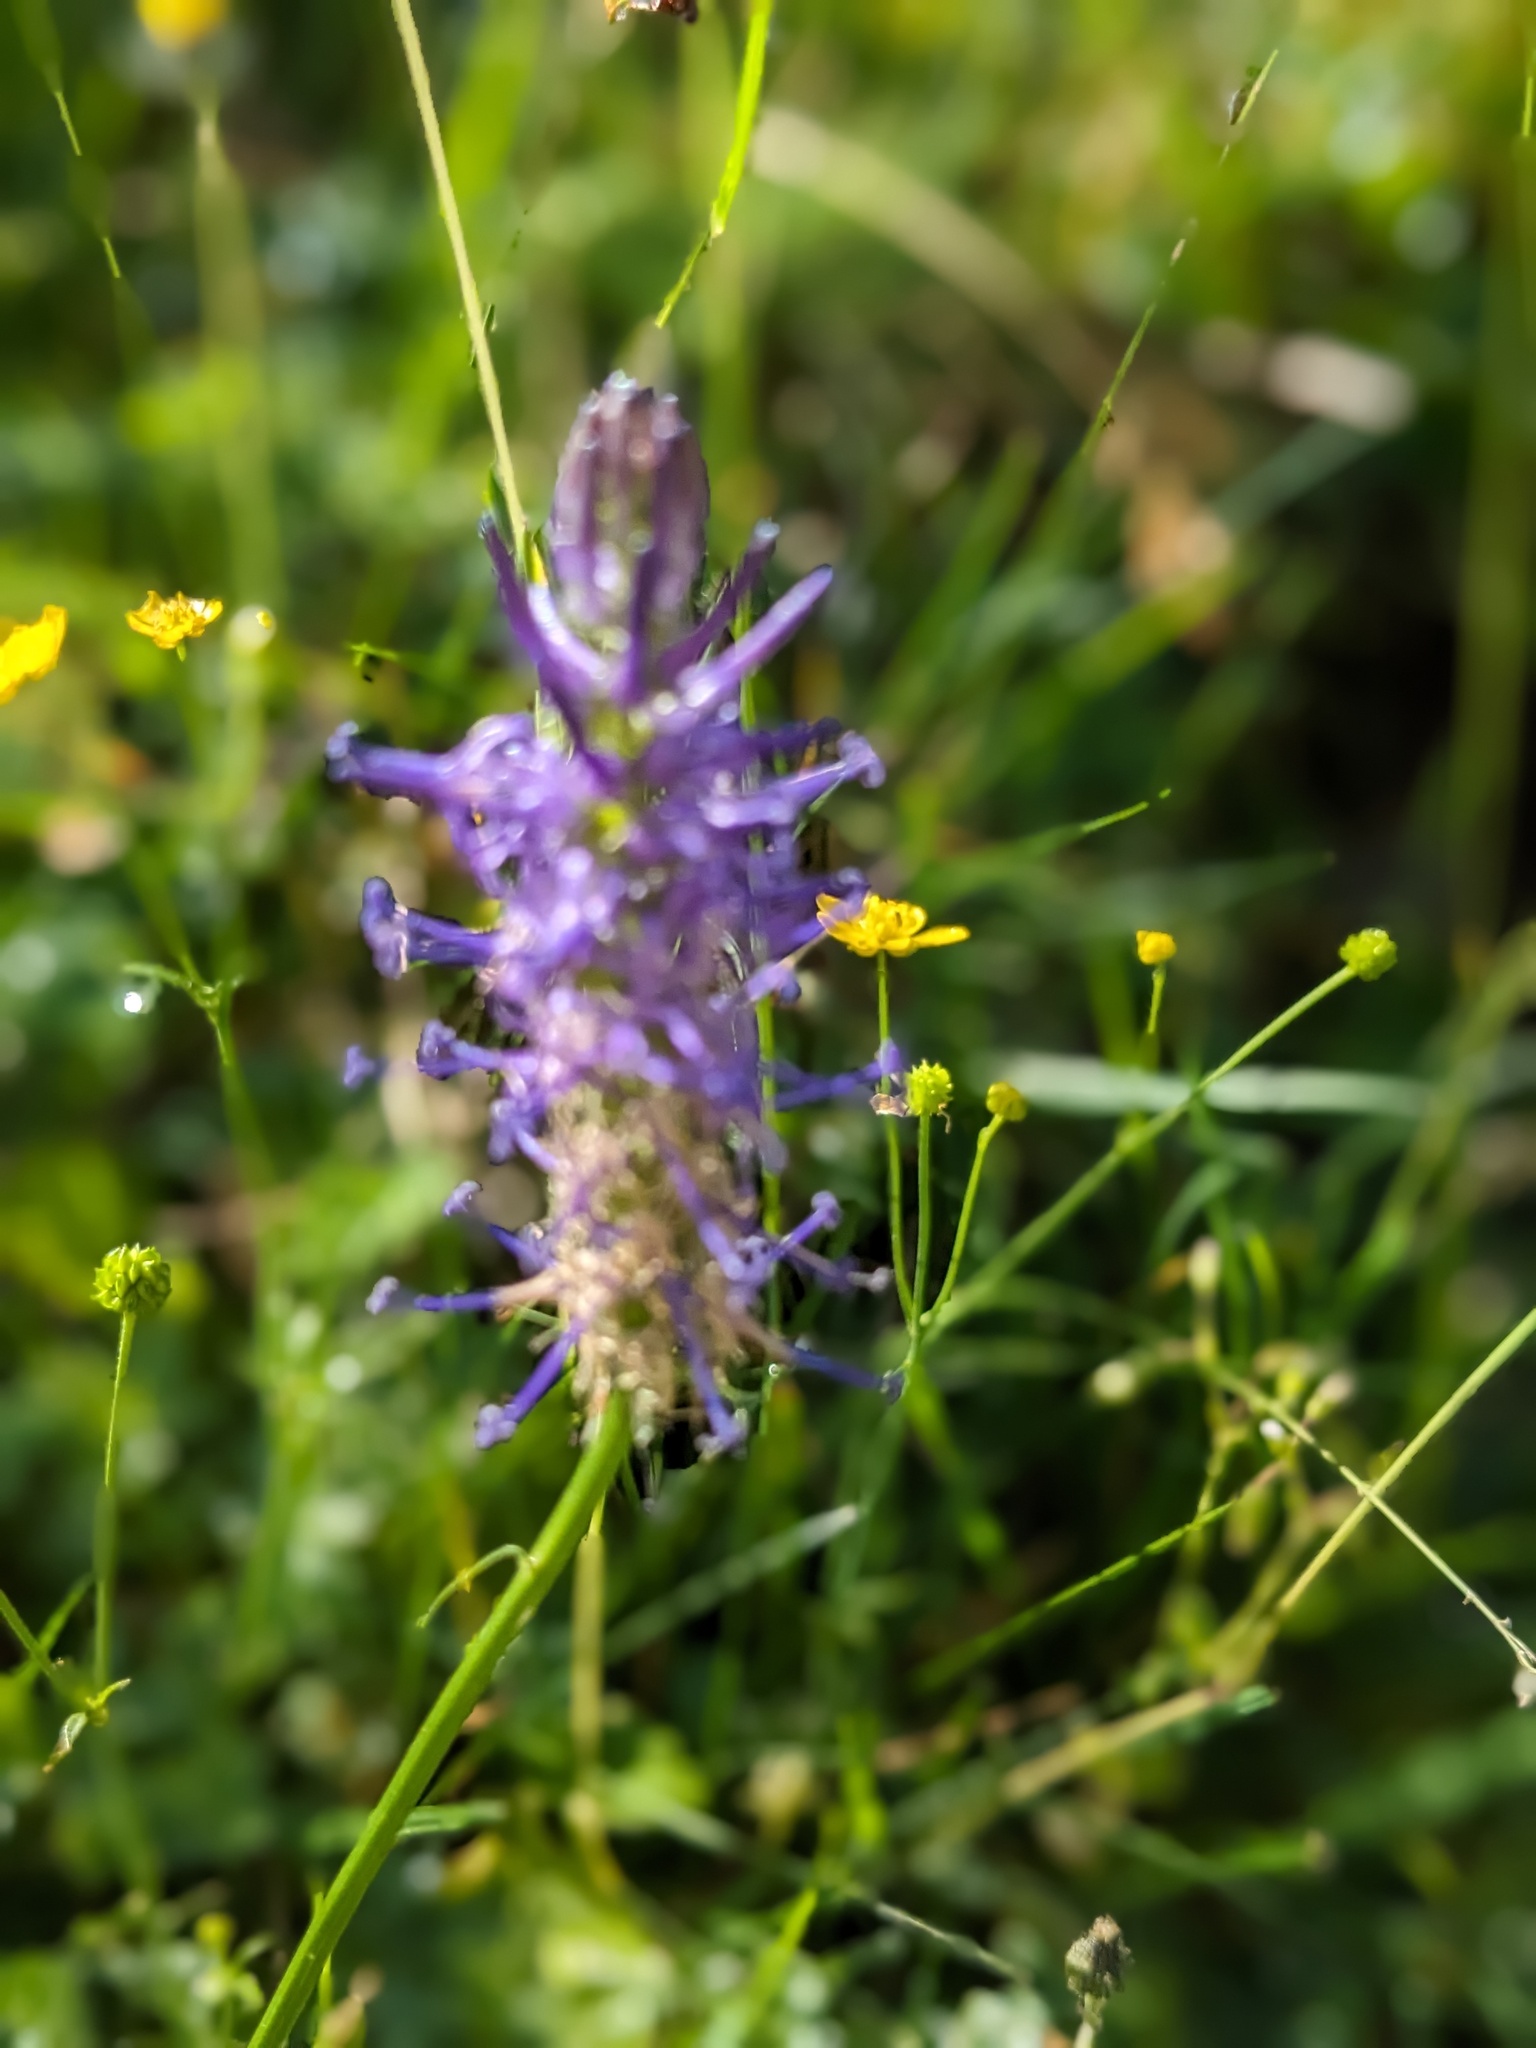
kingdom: Plantae
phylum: Tracheophyta
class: Magnoliopsida
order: Asterales
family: Campanulaceae
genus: Phyteuma
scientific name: Phyteuma betonicifolium
